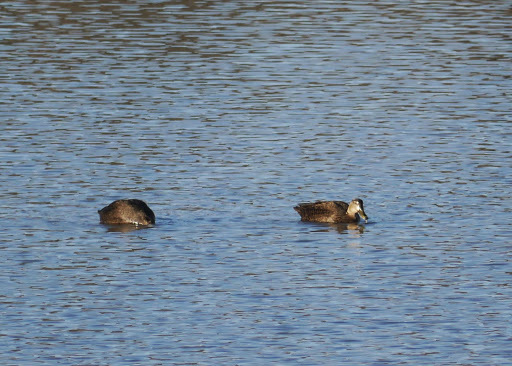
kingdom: Animalia
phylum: Chordata
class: Aves
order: Anseriformes
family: Anatidae
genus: Anas
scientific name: Anas rubripes
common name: American black duck
